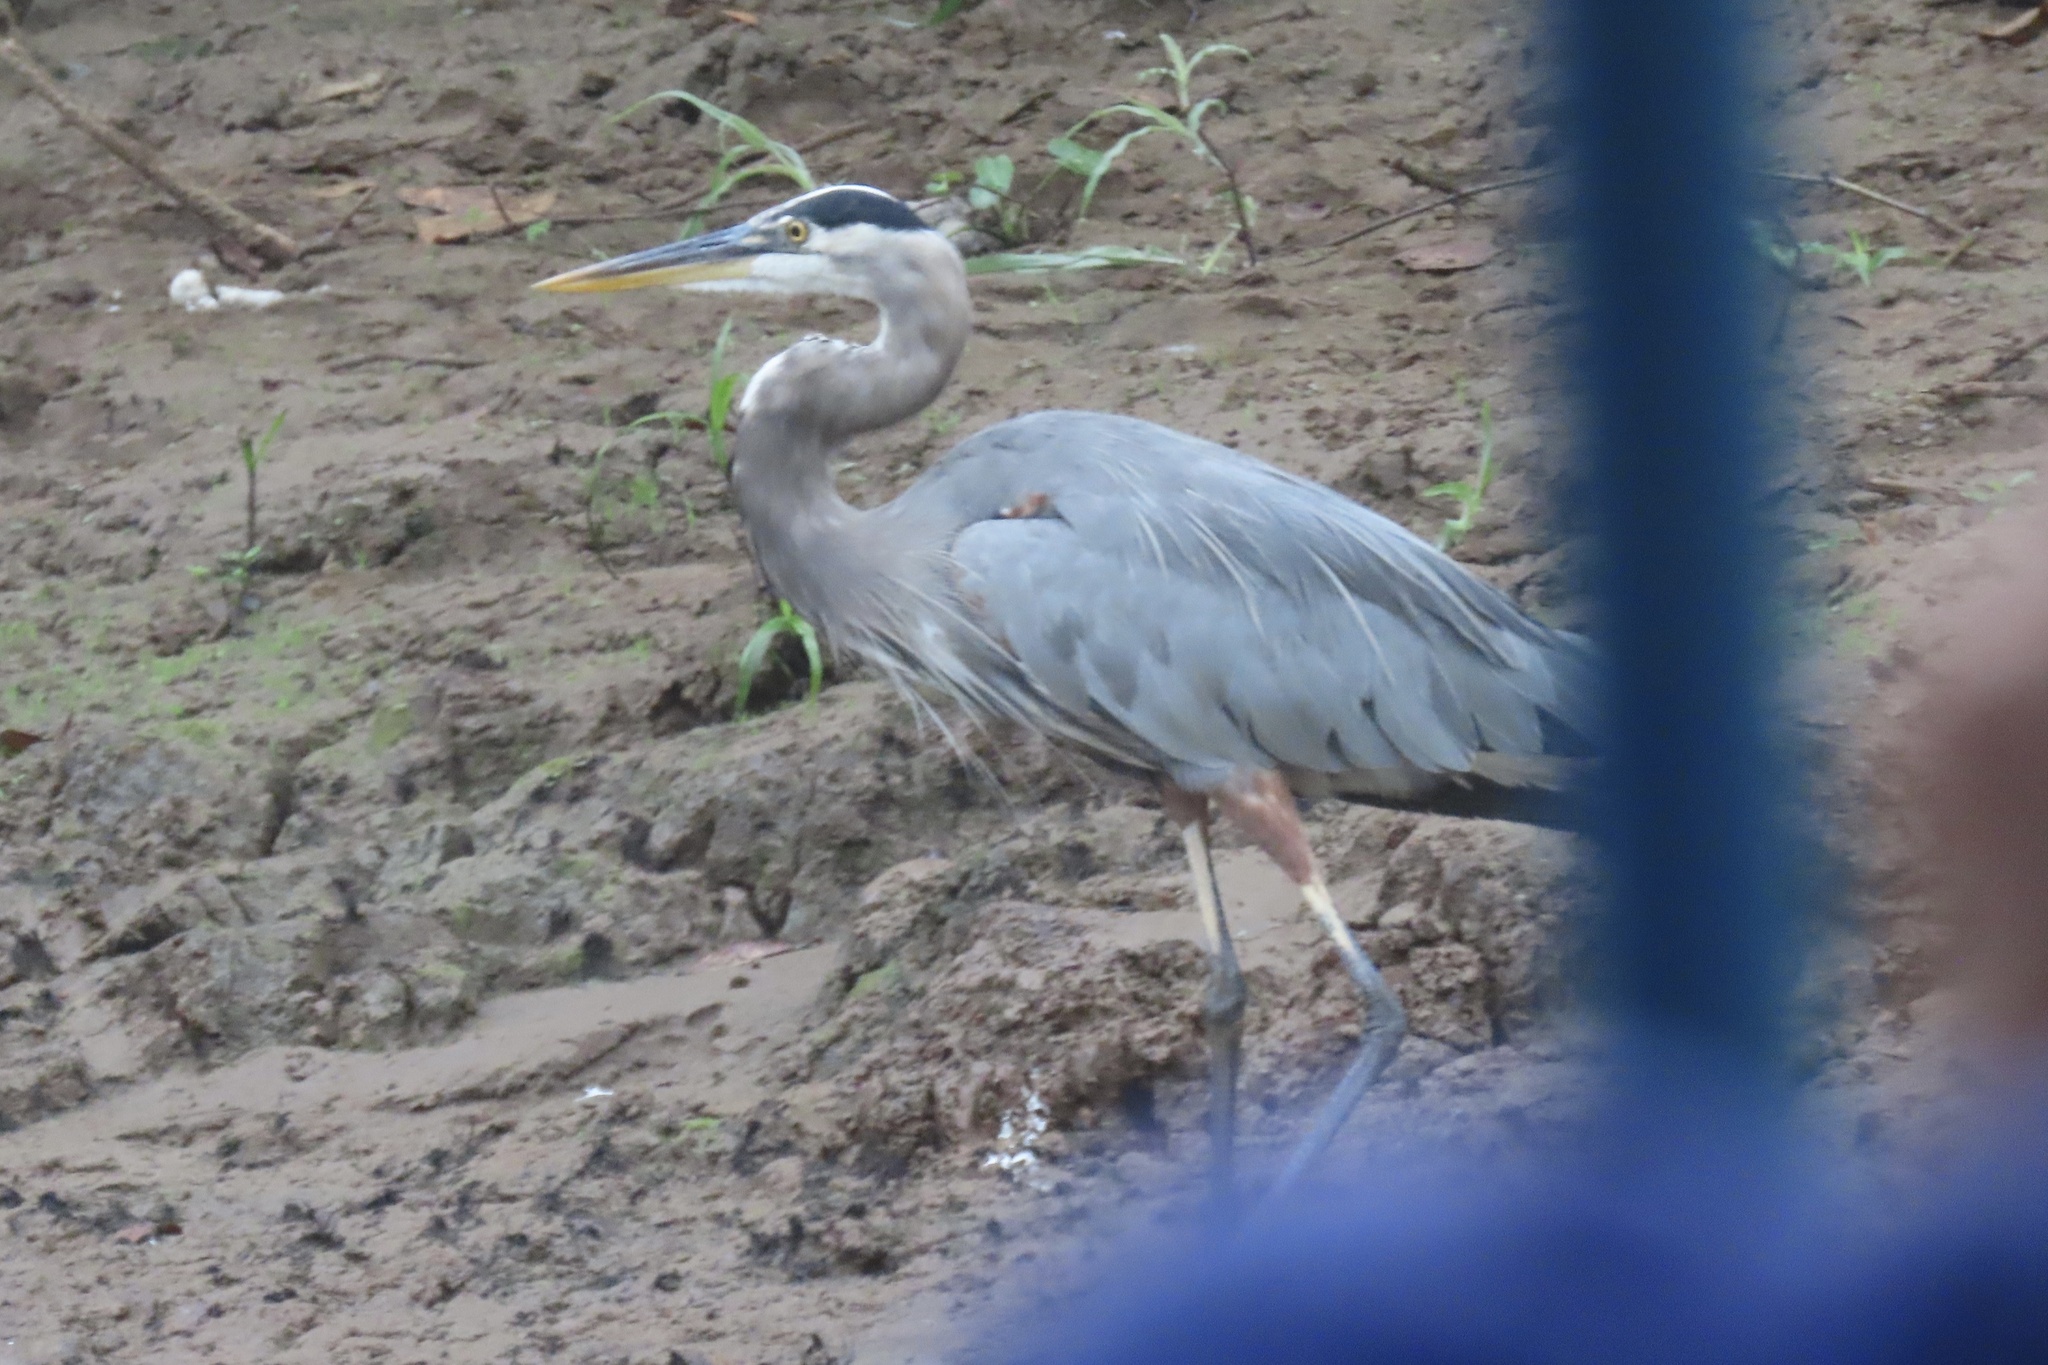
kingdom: Animalia
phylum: Chordata
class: Aves
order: Pelecaniformes
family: Ardeidae
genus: Ardea
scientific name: Ardea herodias
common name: Great blue heron
